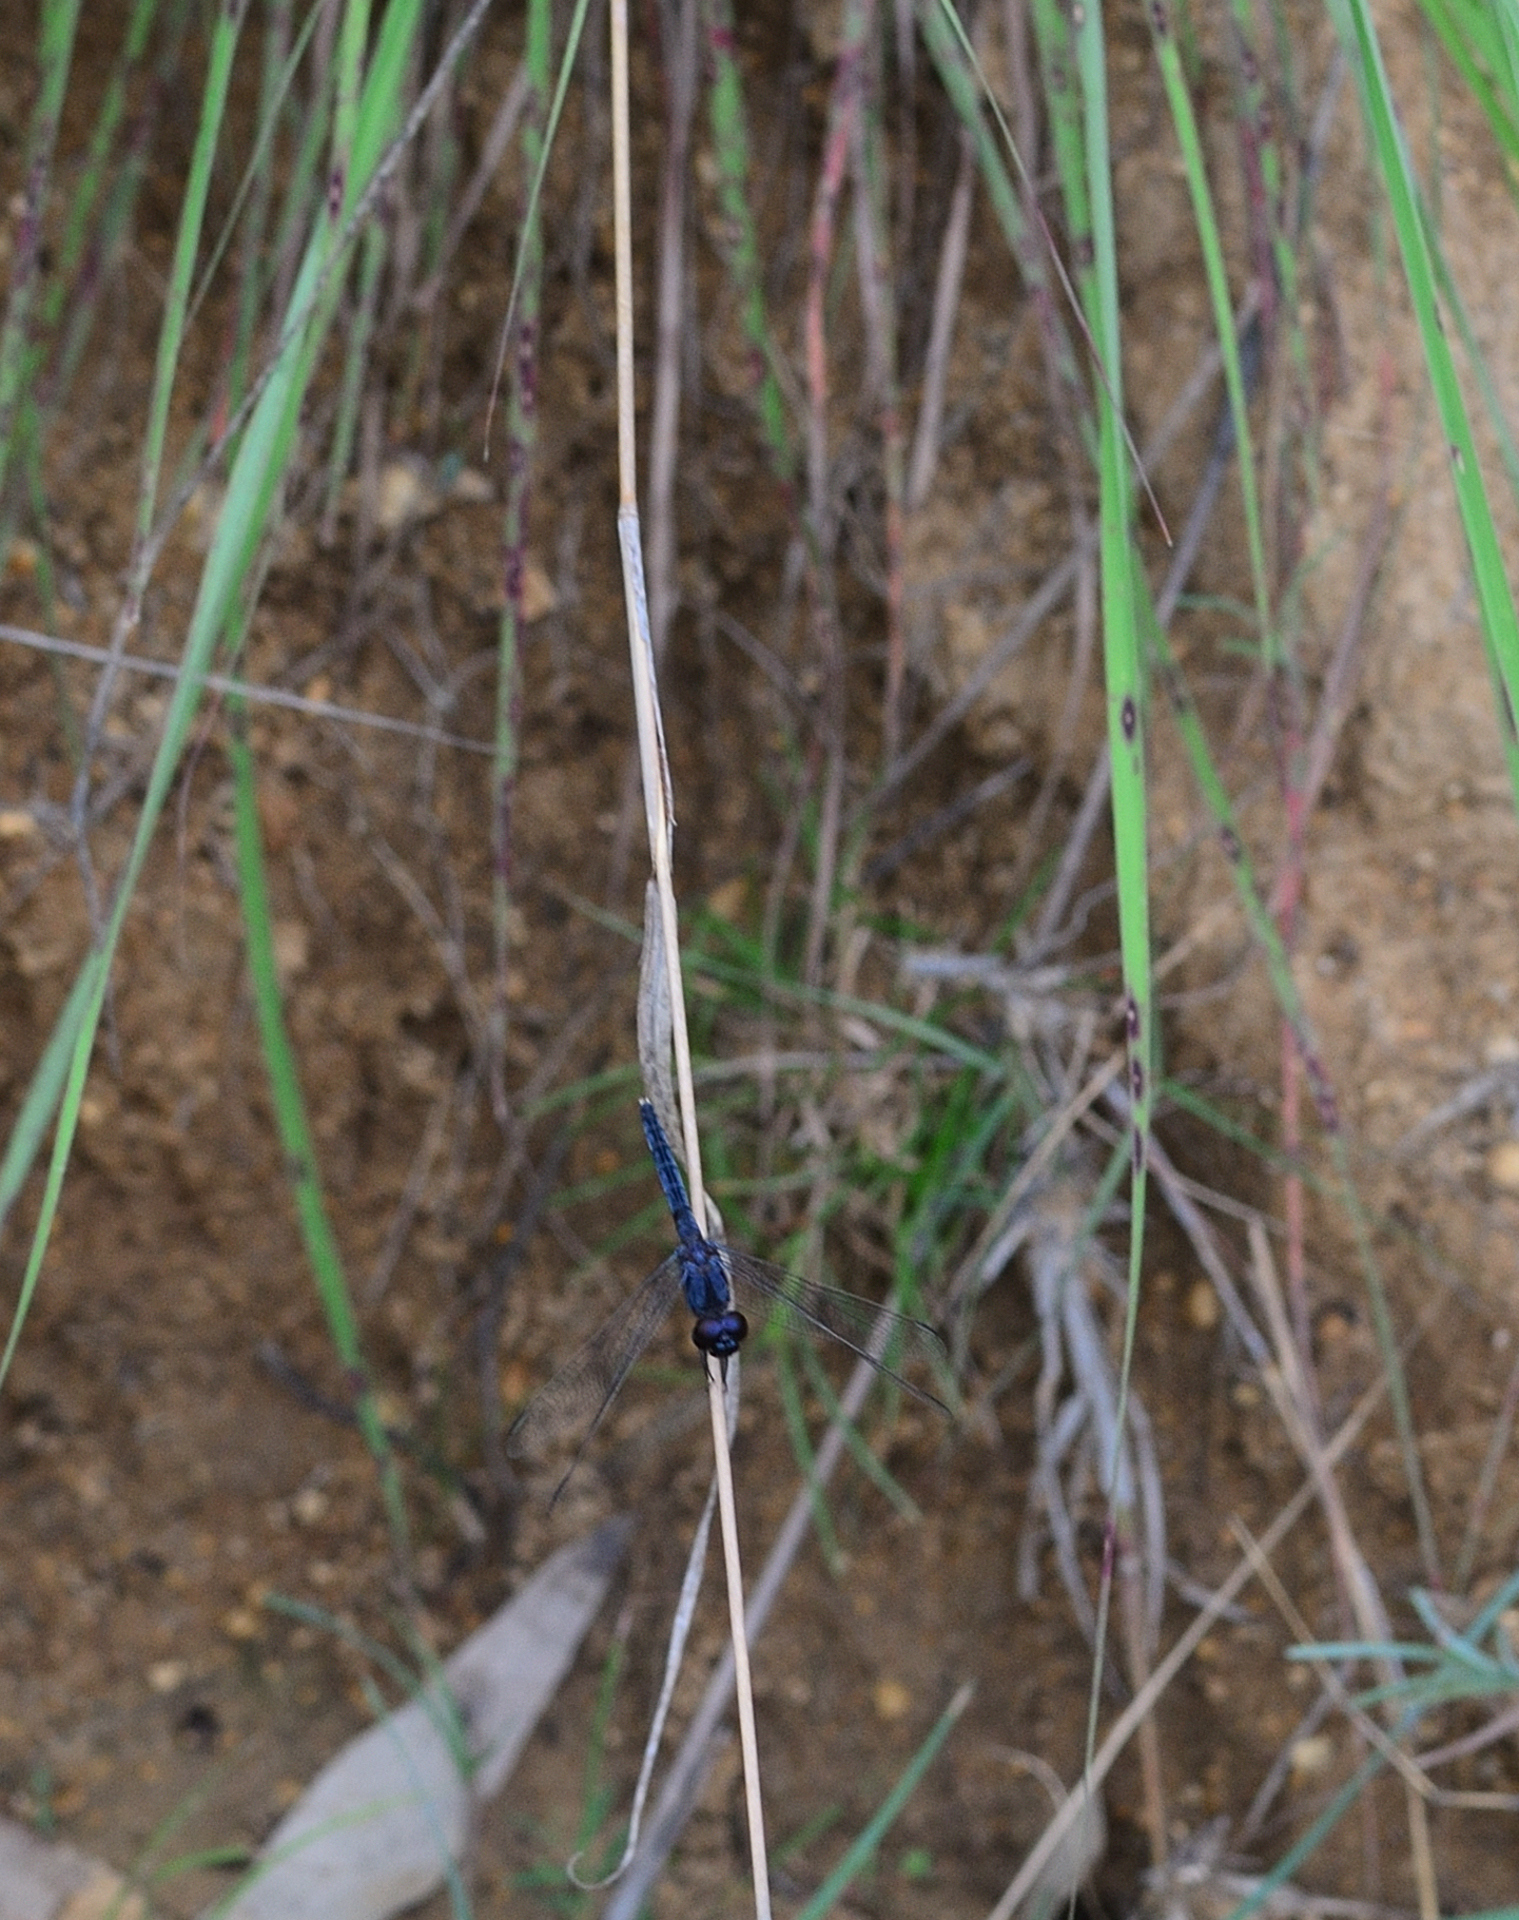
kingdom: Animalia
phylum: Arthropoda
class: Insecta
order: Odonata
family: Libellulidae
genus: Indothemis
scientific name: Indothemis carnatica
